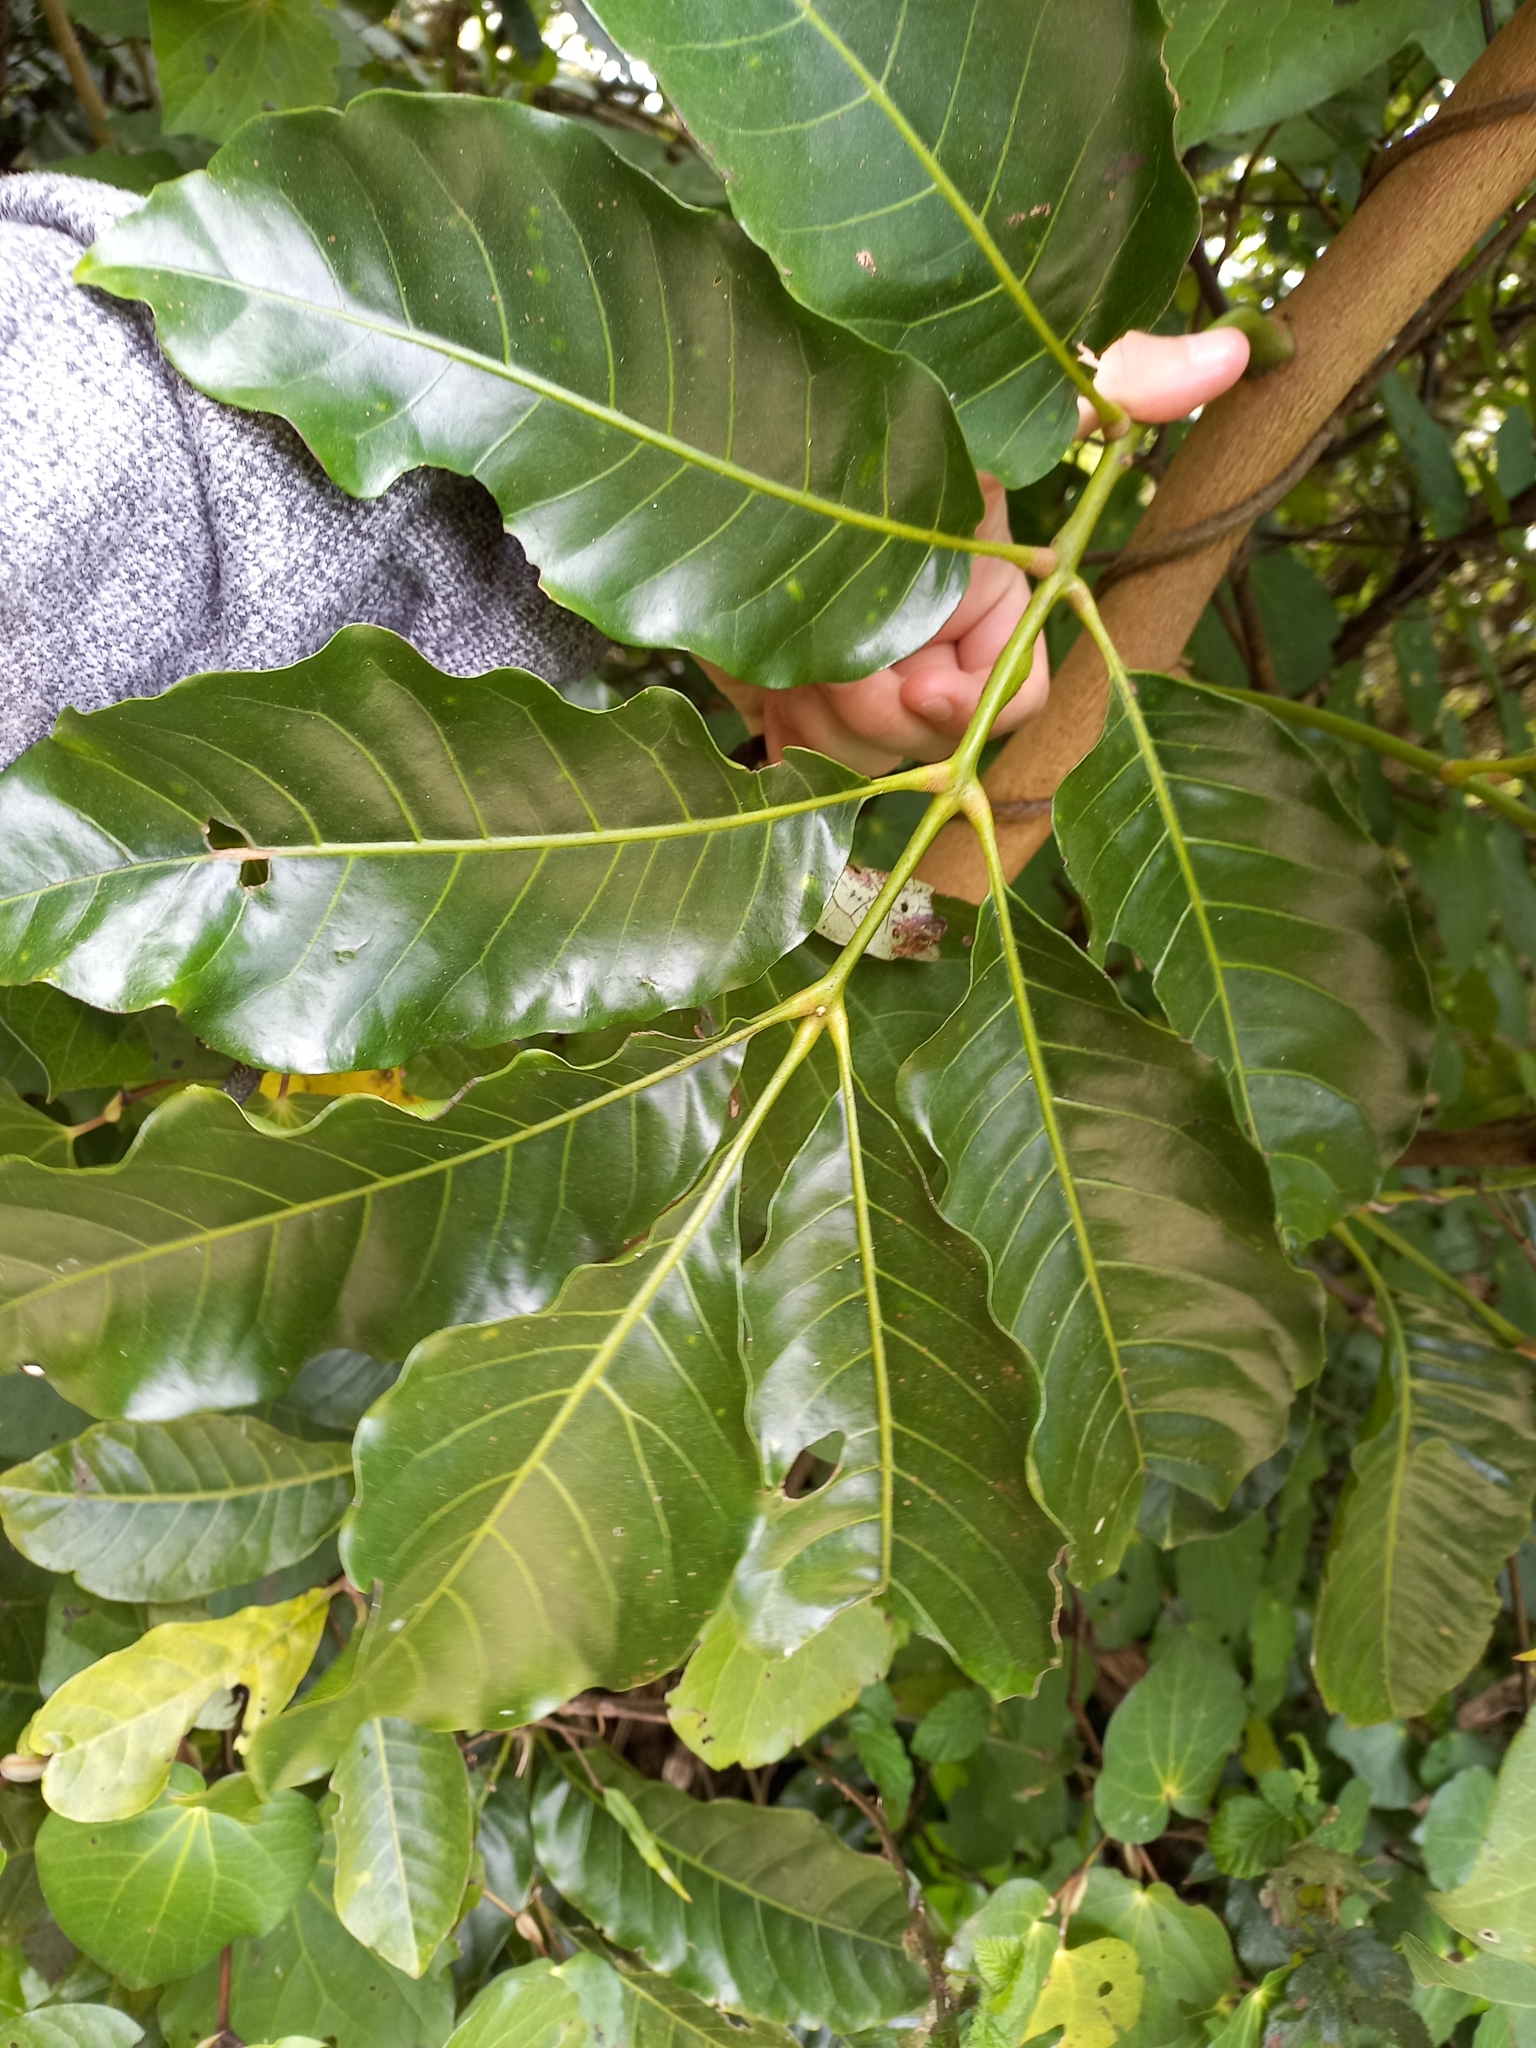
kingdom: Plantae
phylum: Tracheophyta
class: Magnoliopsida
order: Sapindales
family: Meliaceae
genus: Didymocheton
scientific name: Didymocheton spectabilis
